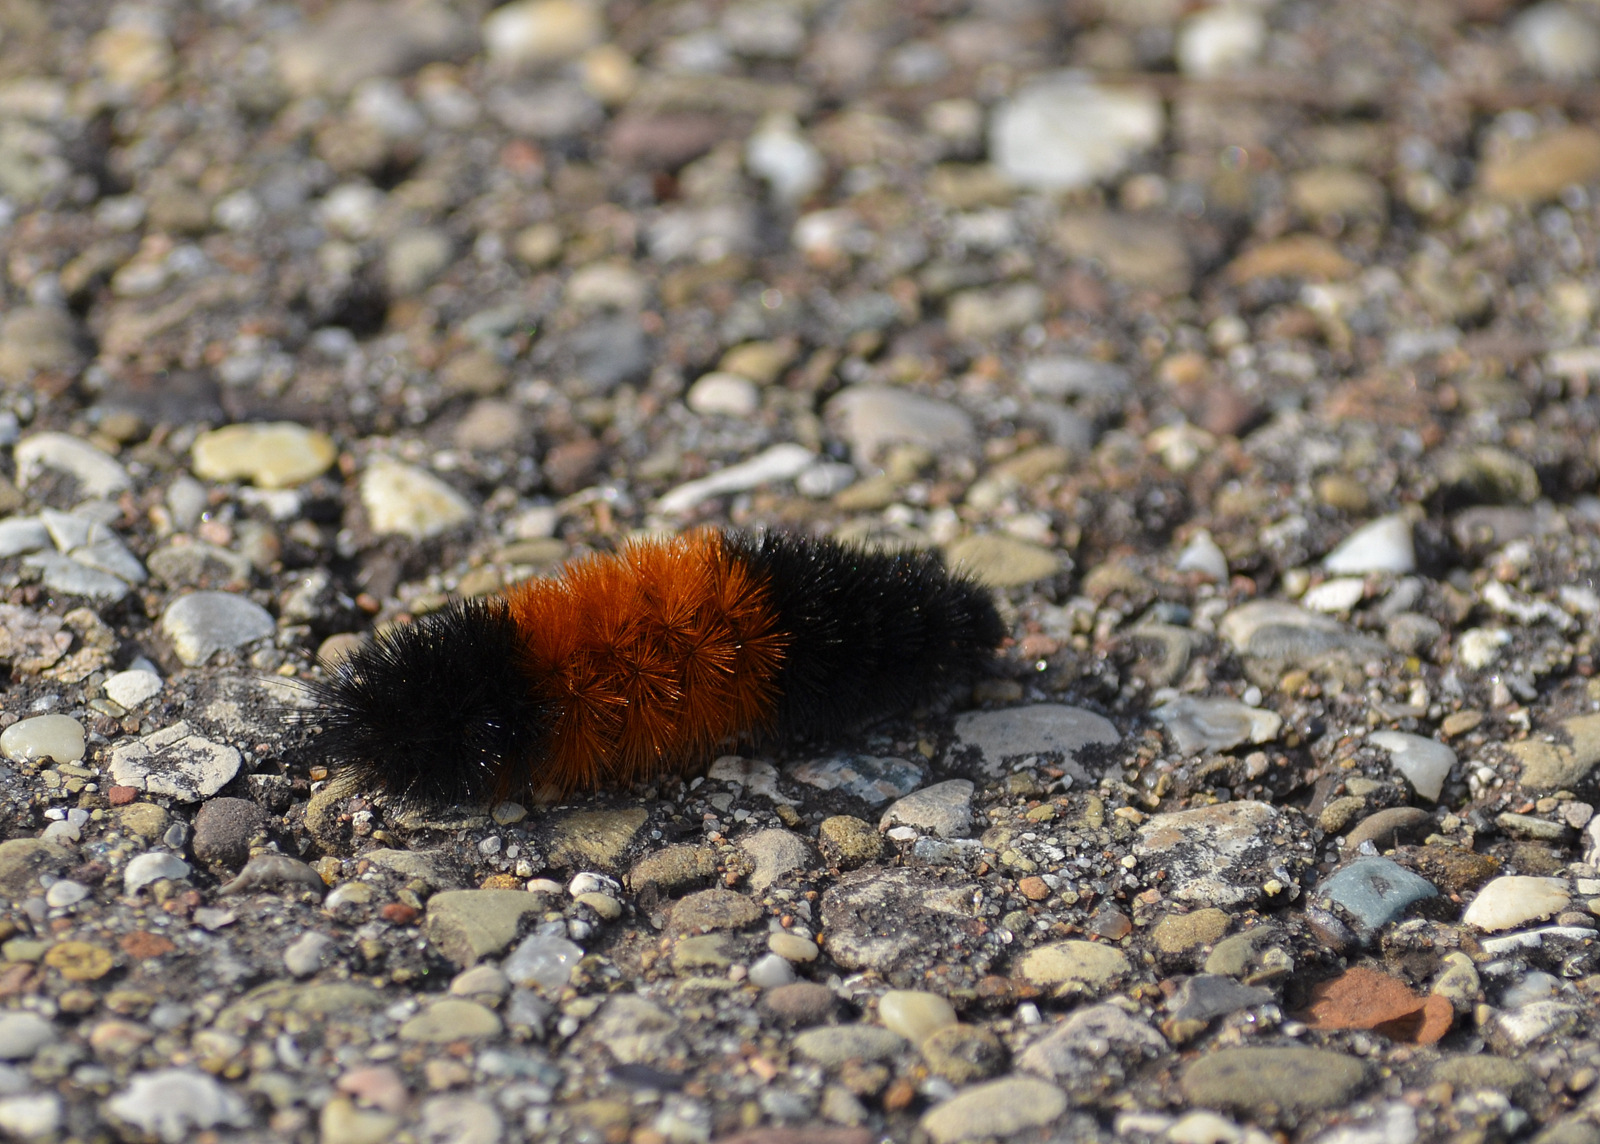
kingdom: Animalia
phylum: Arthropoda
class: Insecta
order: Lepidoptera
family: Erebidae
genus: Pyrrharctia
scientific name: Pyrrharctia isabella
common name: Isabella tiger moth
